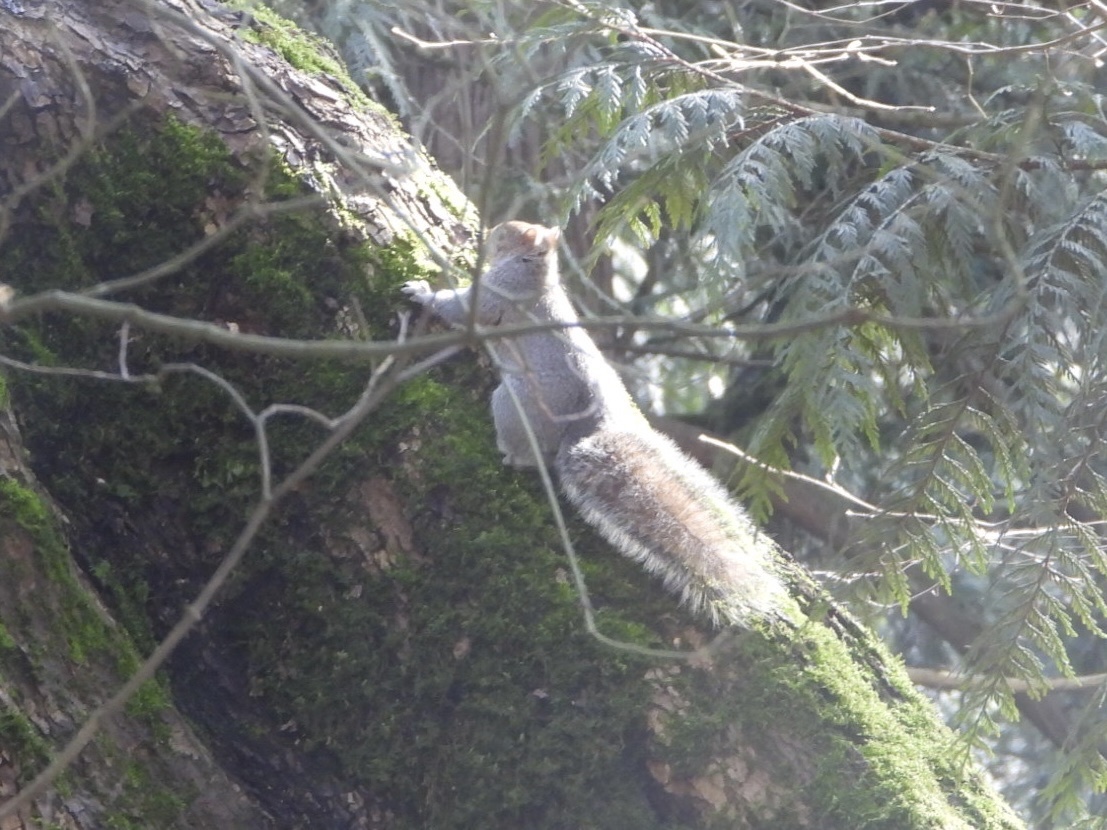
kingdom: Animalia
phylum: Chordata
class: Mammalia
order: Rodentia
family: Sciuridae
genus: Sciurus
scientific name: Sciurus carolinensis
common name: Eastern gray squirrel
